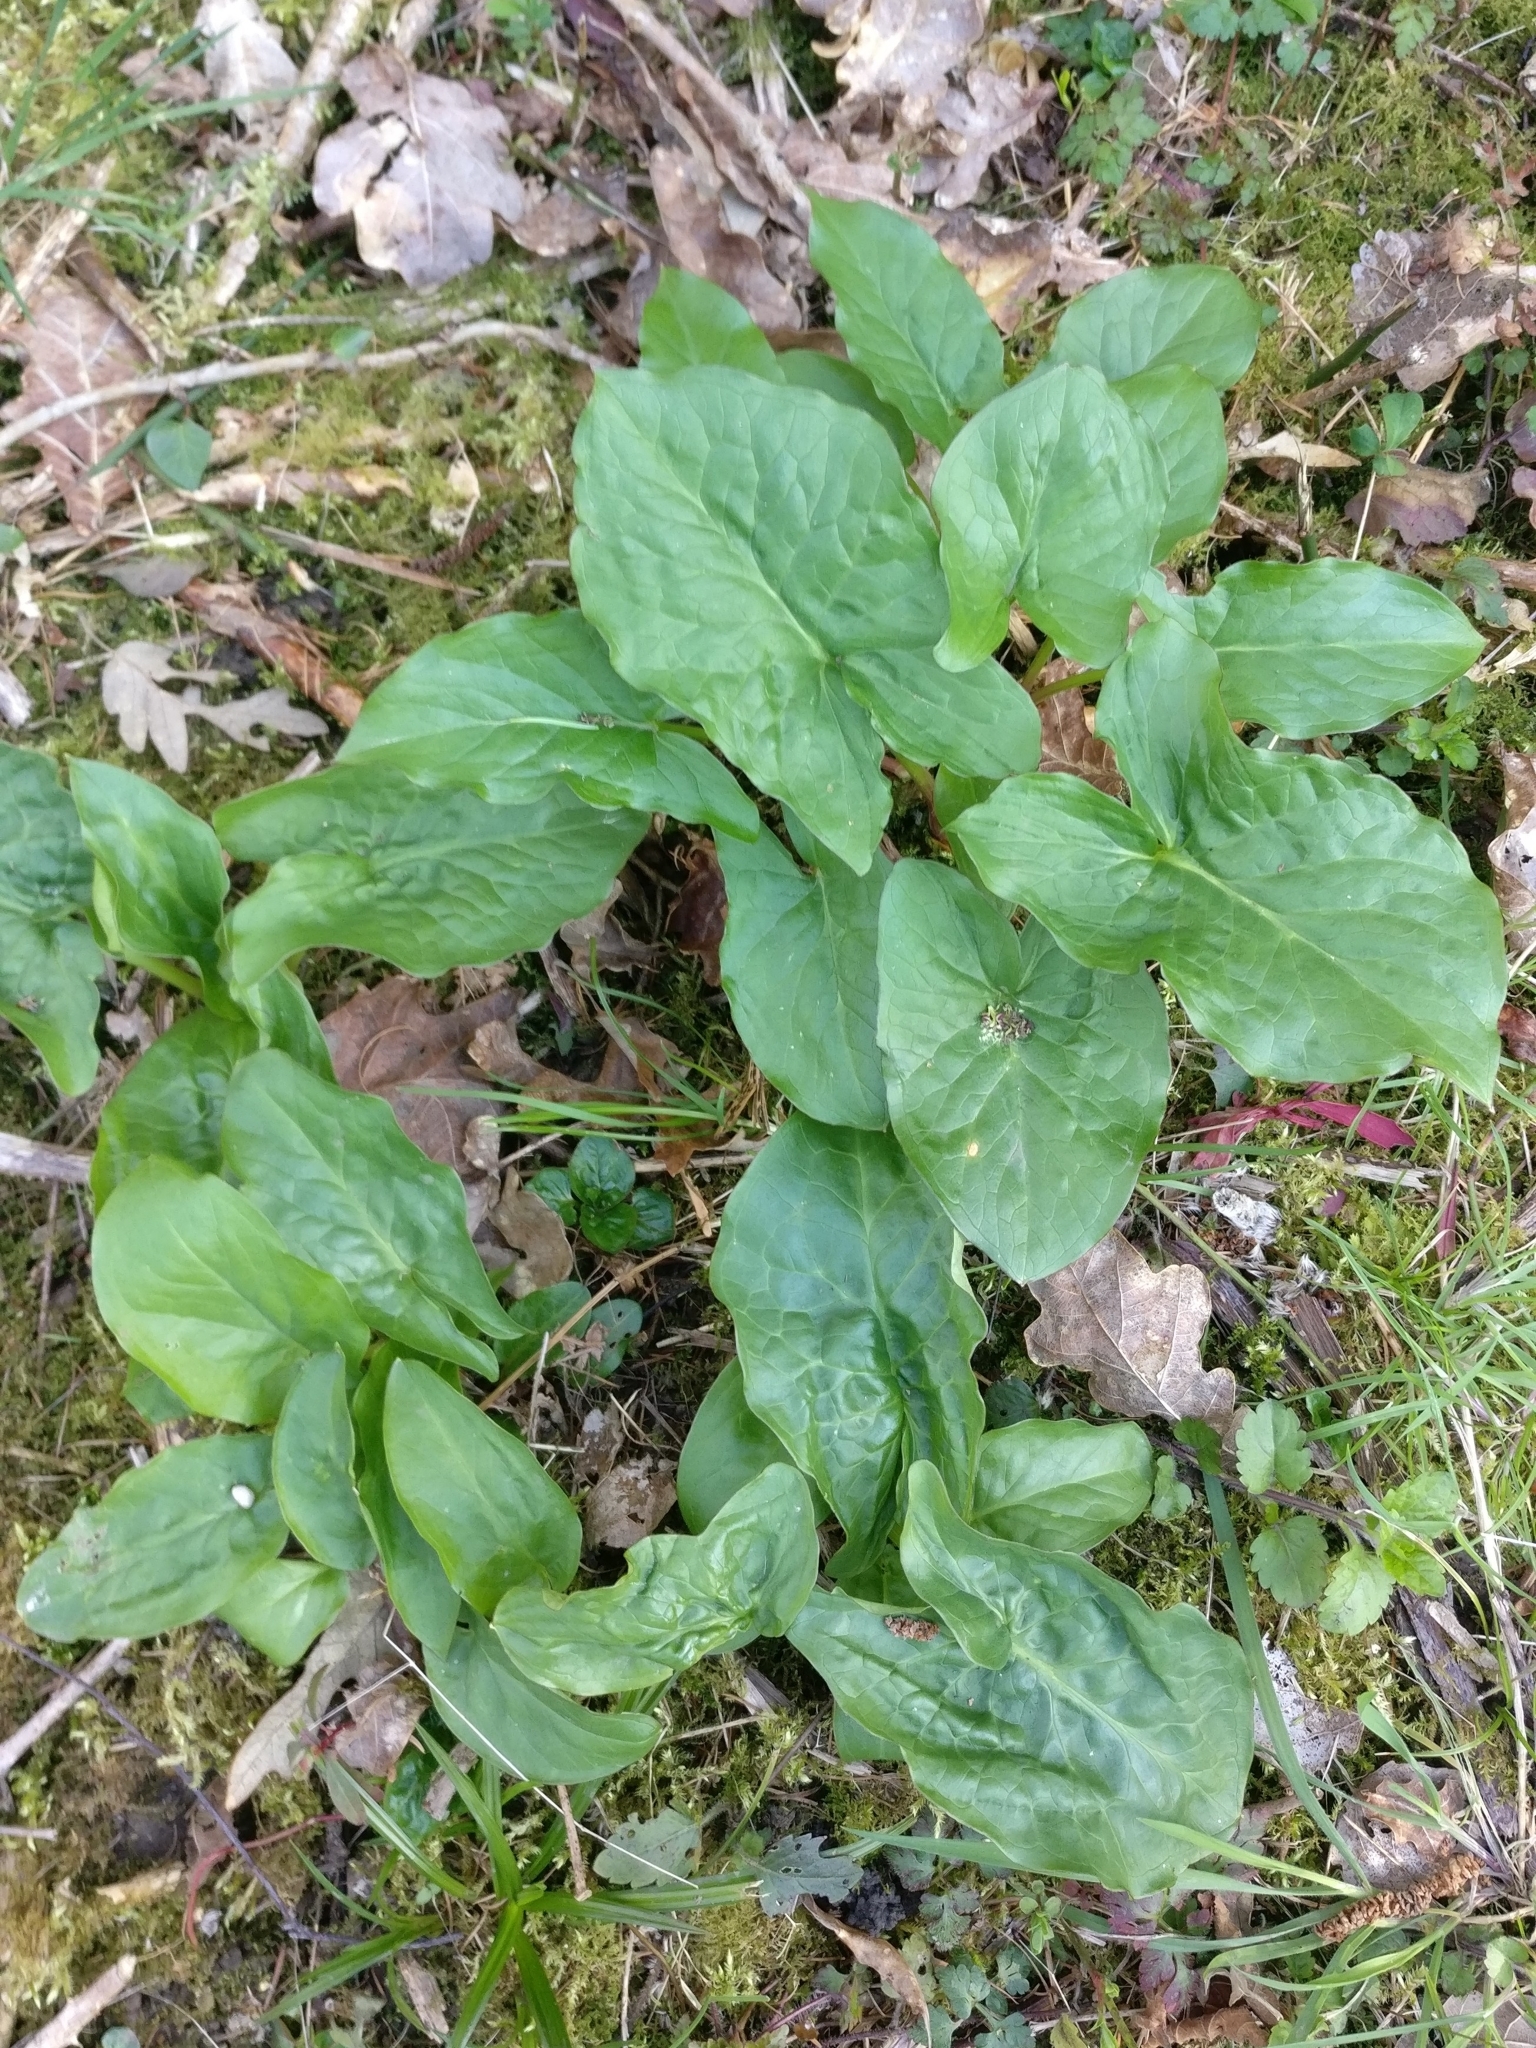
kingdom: Plantae
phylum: Tracheophyta
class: Liliopsida
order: Alismatales
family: Araceae
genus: Arum
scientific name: Arum maculatum
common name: Lords-and-ladies
